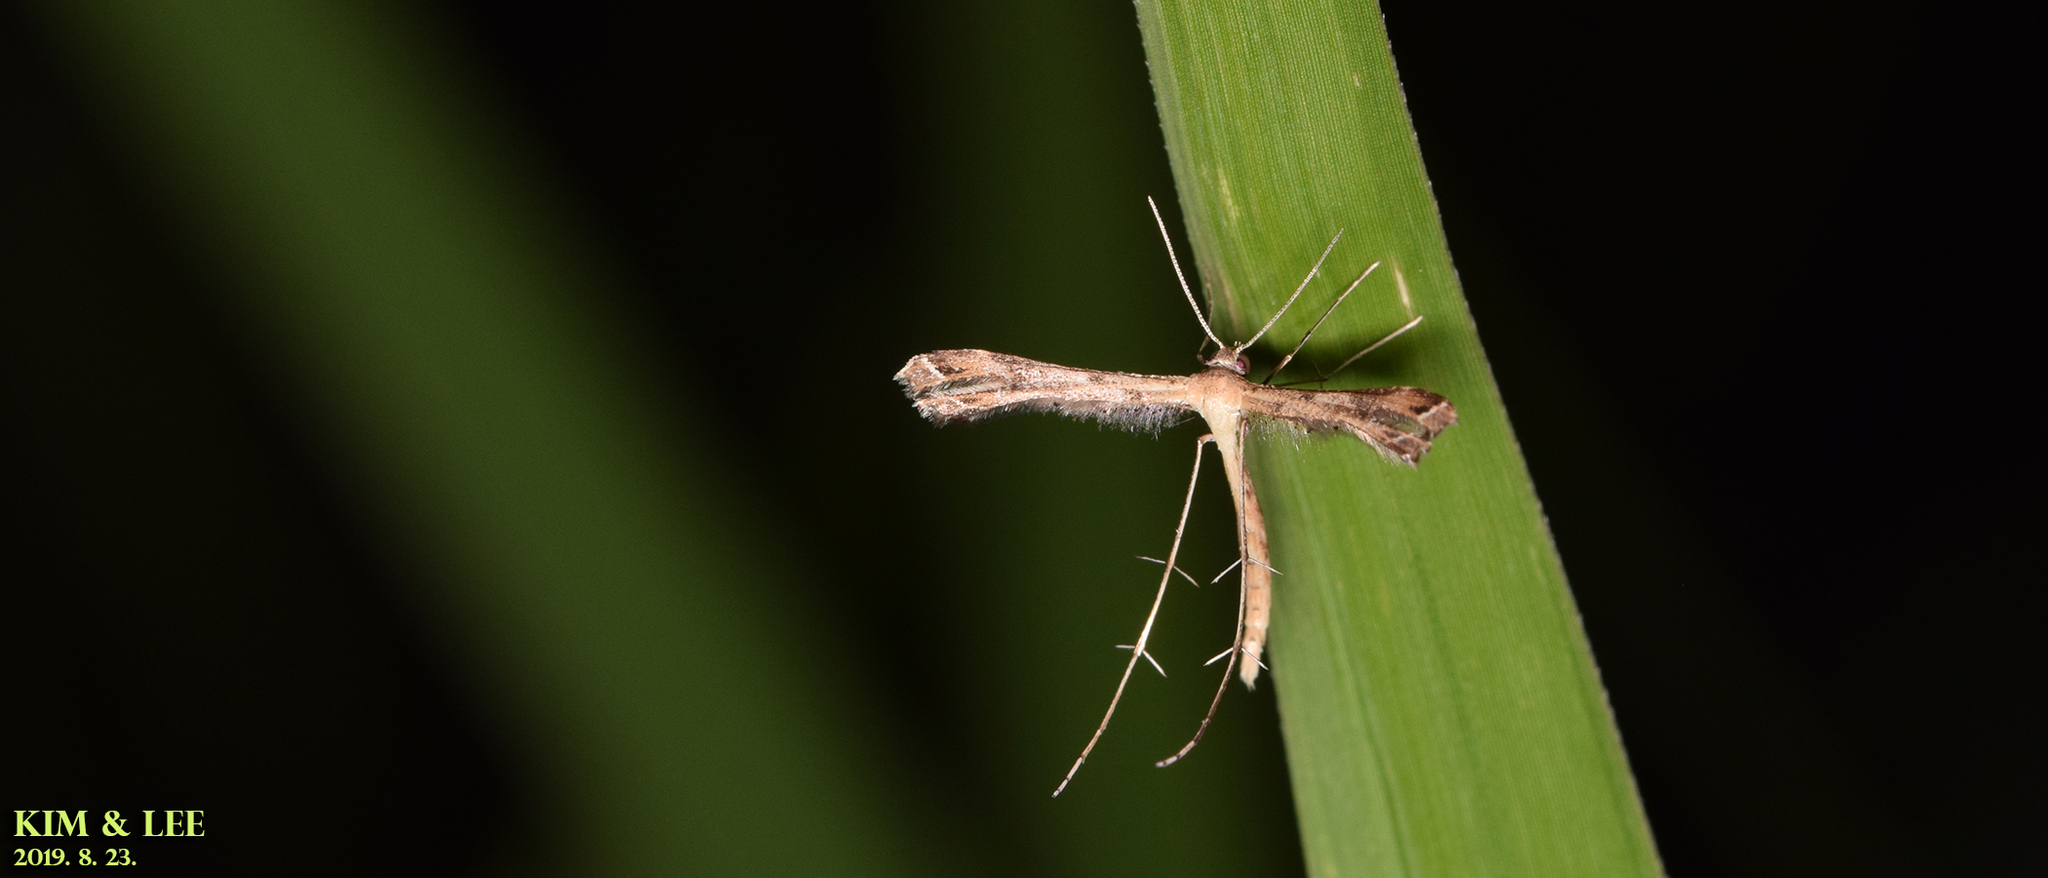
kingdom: Animalia
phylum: Arthropoda
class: Insecta
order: Lepidoptera
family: Pterophoridae
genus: Stenoptilodes
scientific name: Stenoptilodes taprobanes
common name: Moth
